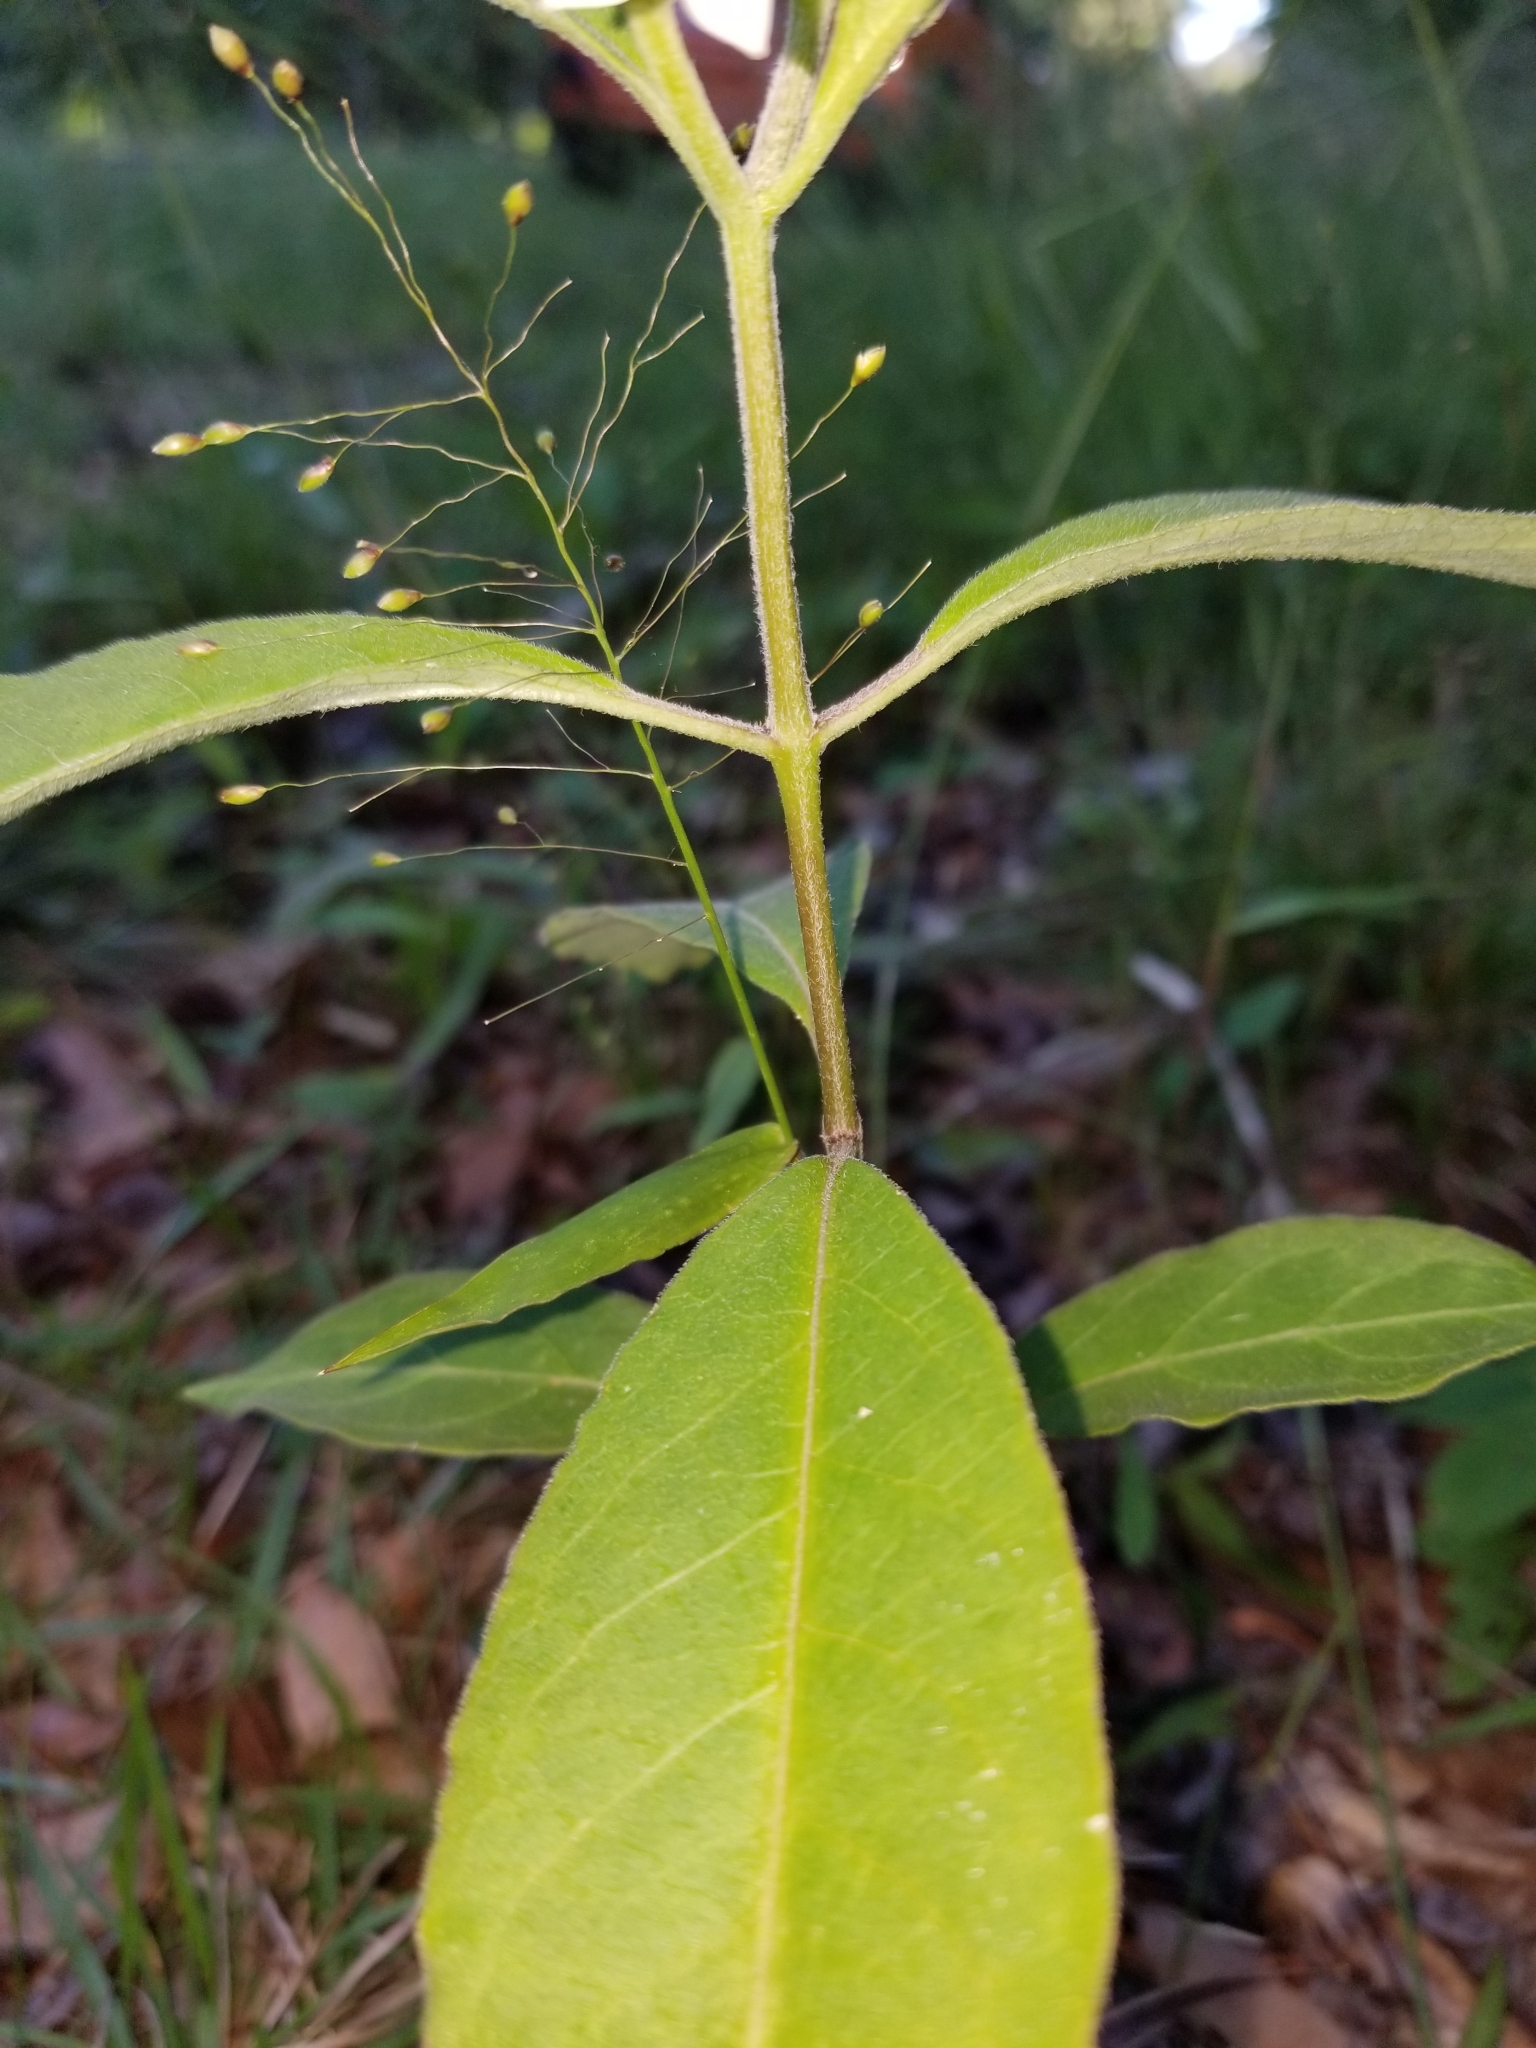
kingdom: Plantae
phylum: Tracheophyta
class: Magnoliopsida
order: Gentianales
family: Apocynaceae
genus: Asclepias
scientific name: Asclepias variegata
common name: Variegated milkweed
